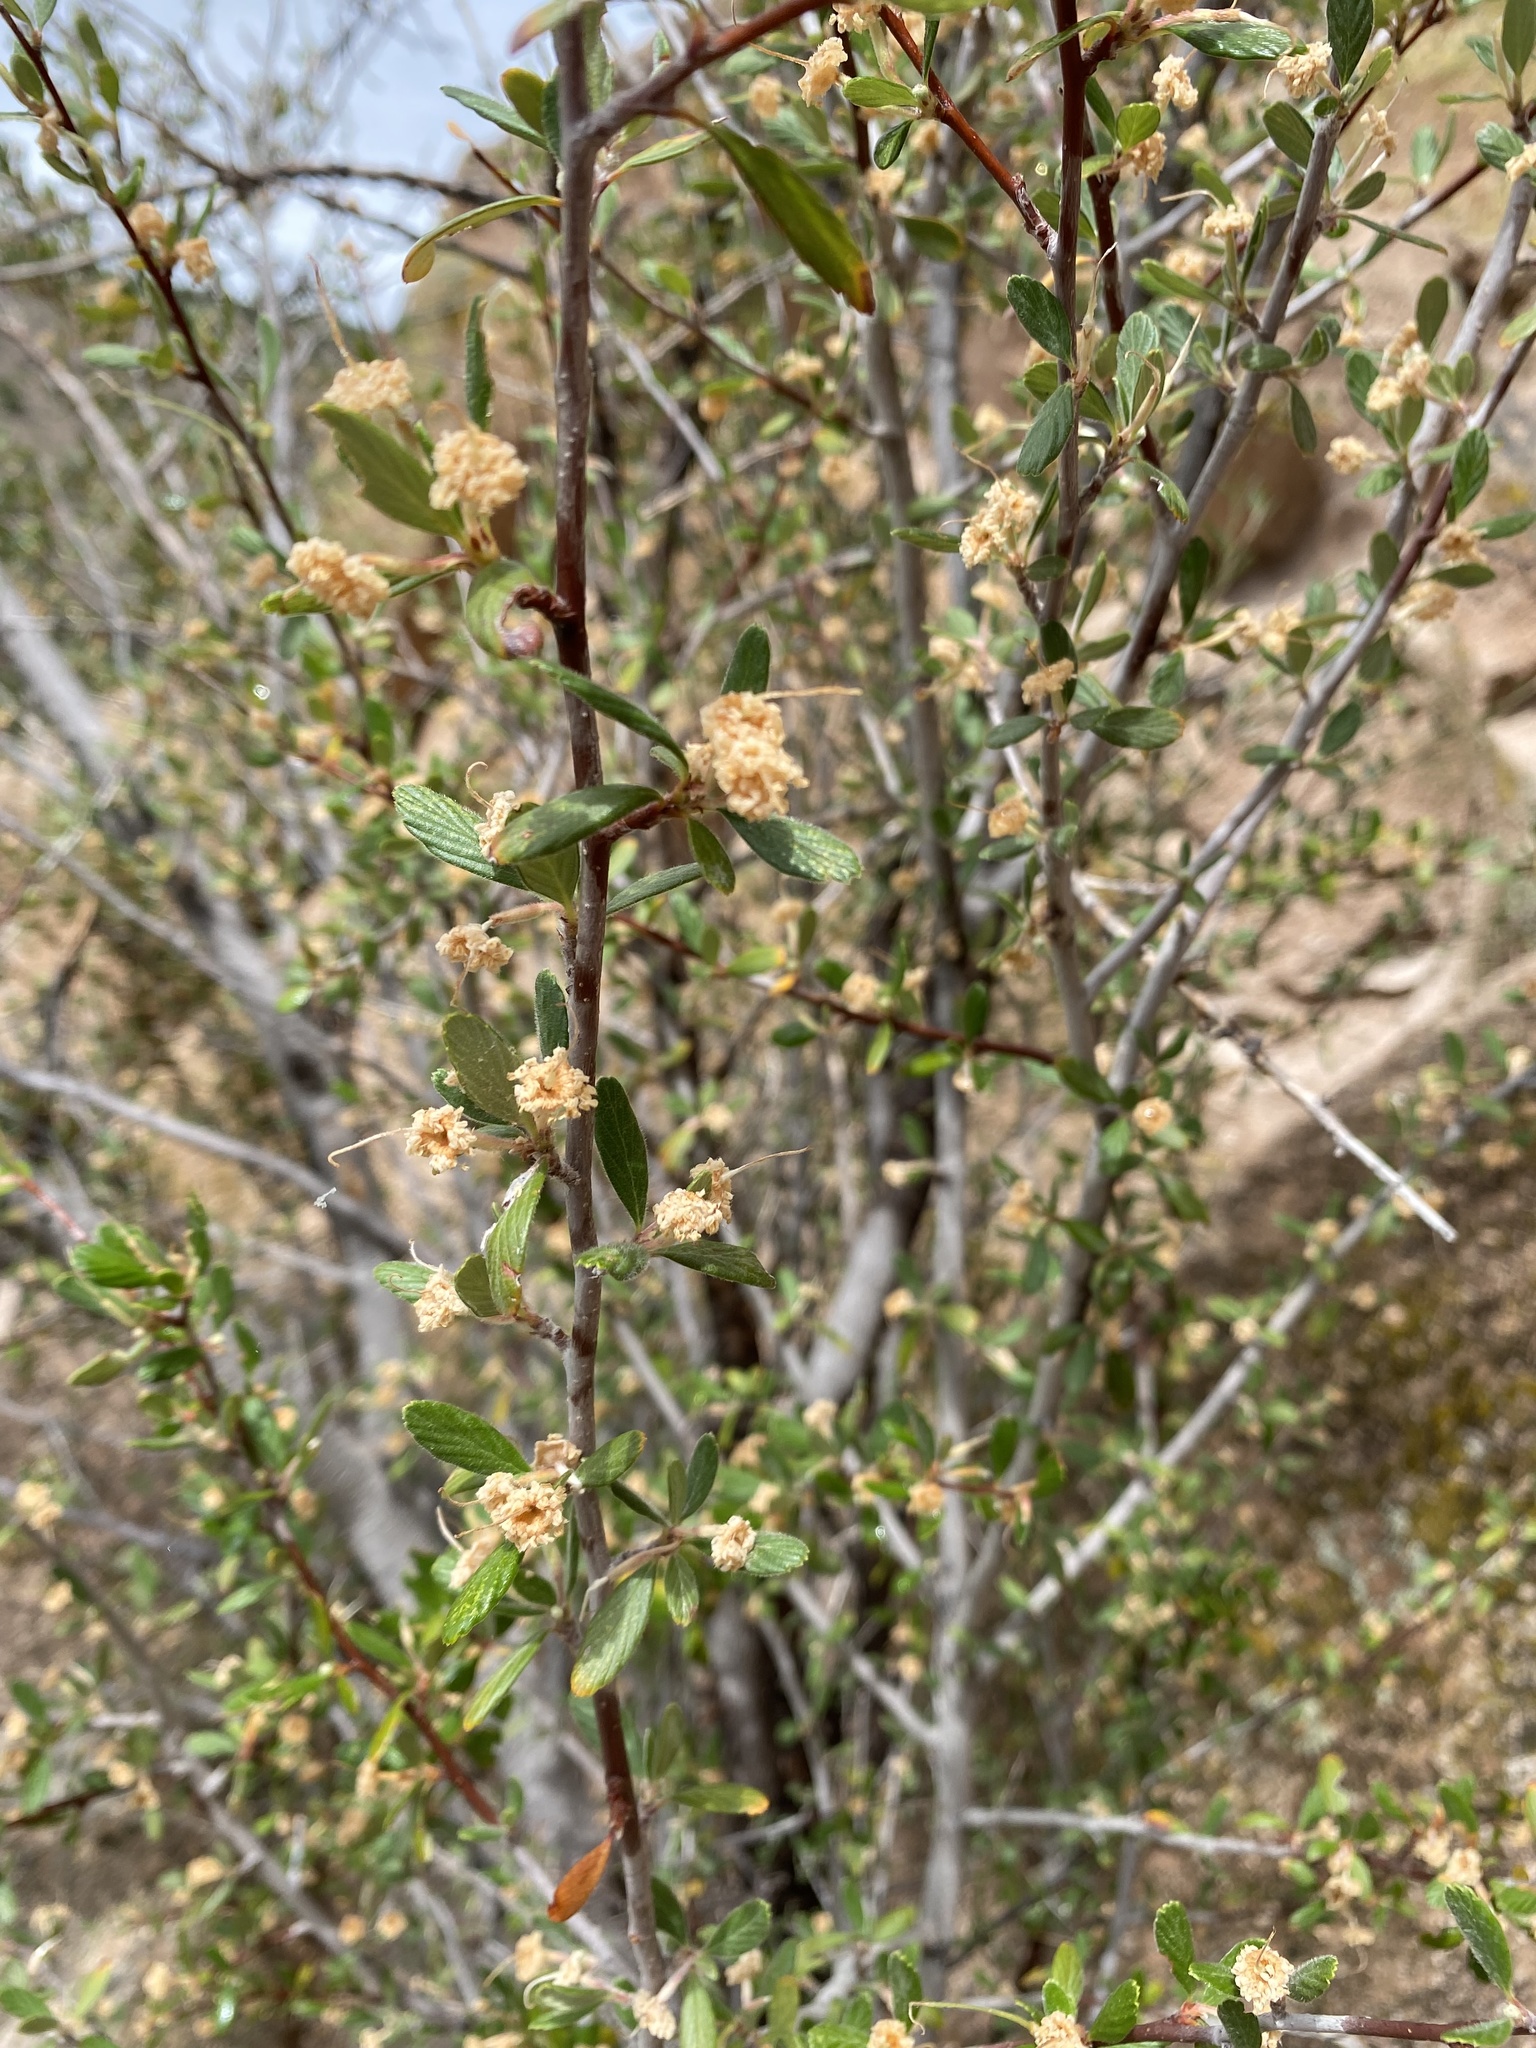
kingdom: Plantae
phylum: Tracheophyta
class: Magnoliopsida
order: Rosales
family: Rosaceae
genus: Cercocarpus
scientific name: Cercocarpus breviflorus
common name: Wright's mountain-mahogany
